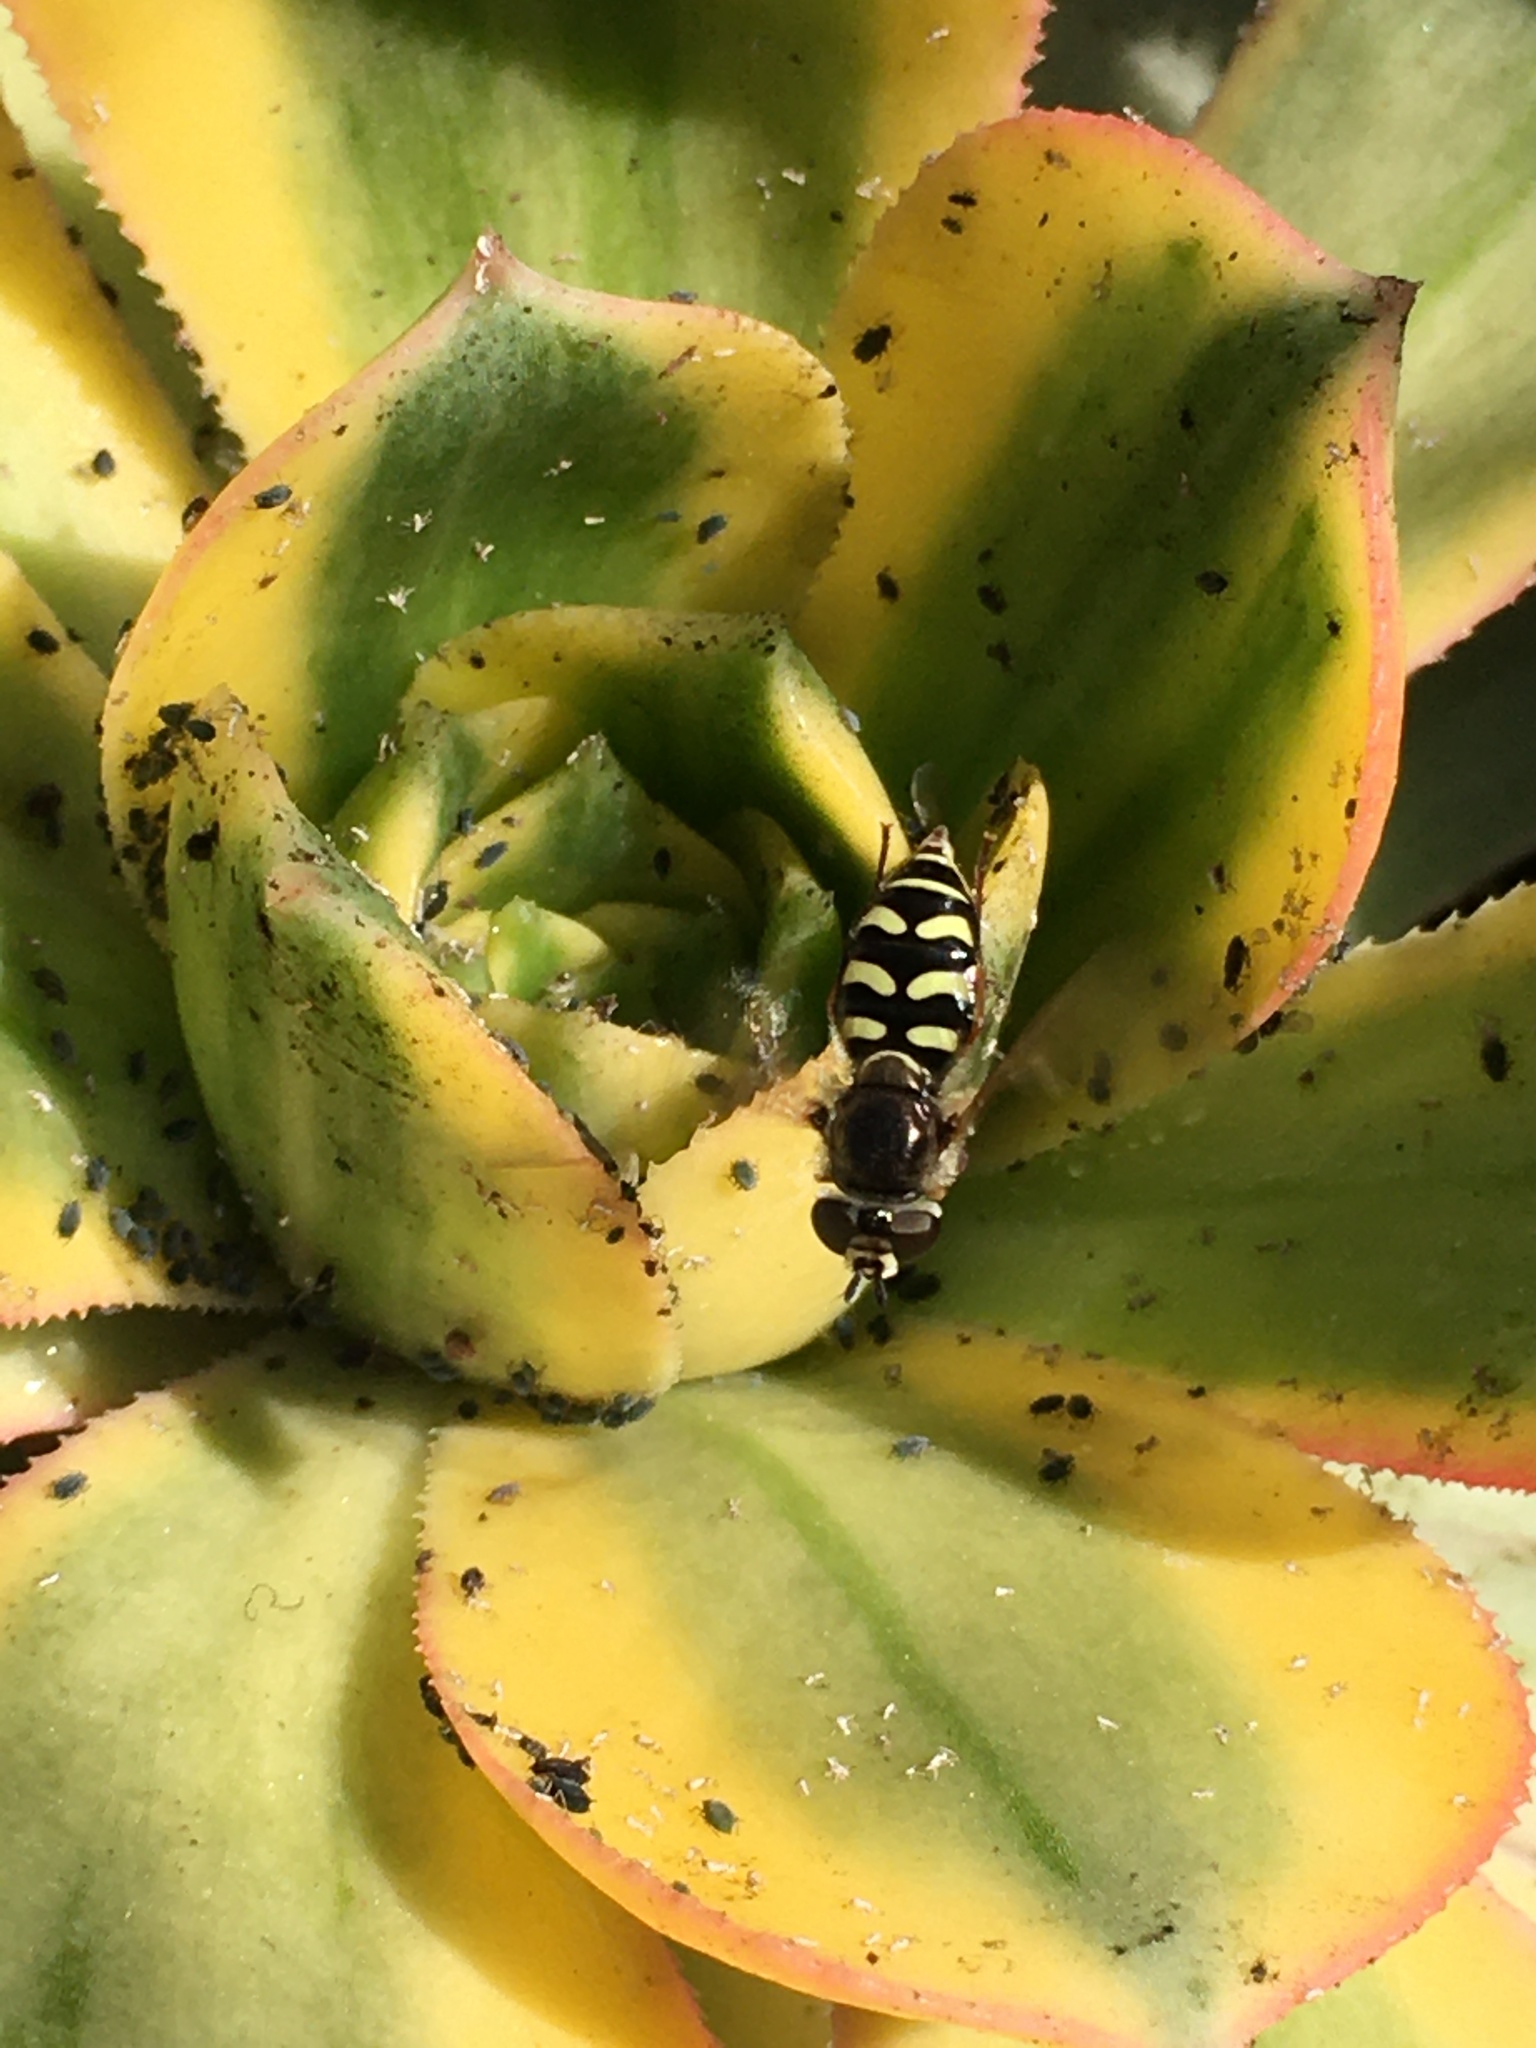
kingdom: Animalia
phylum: Arthropoda
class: Insecta
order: Diptera
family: Syrphidae
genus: Eupeodes
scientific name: Eupeodes volucris
